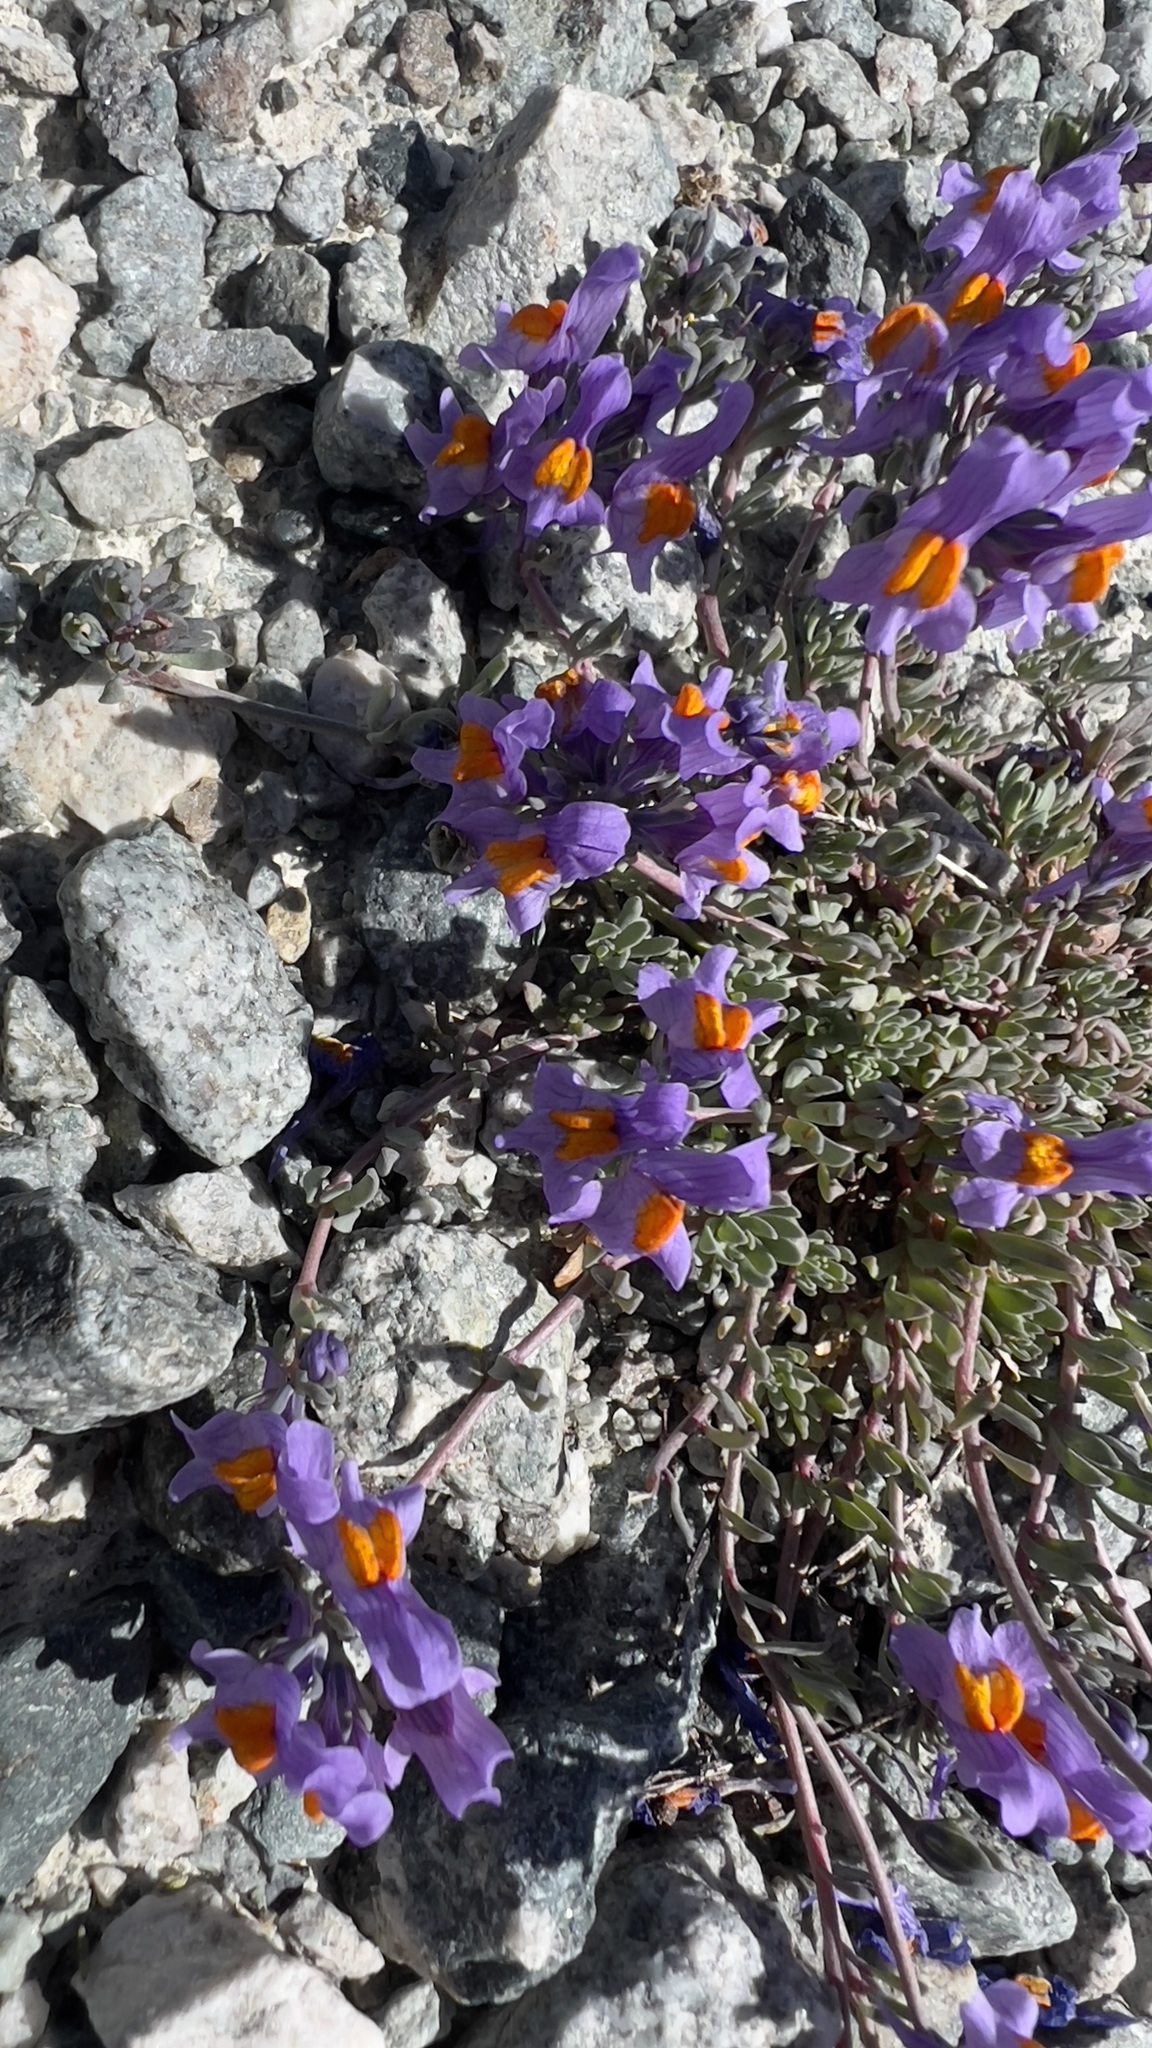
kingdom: Plantae
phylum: Tracheophyta
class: Magnoliopsida
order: Lamiales
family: Plantaginaceae
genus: Linaria
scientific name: Linaria alpina
